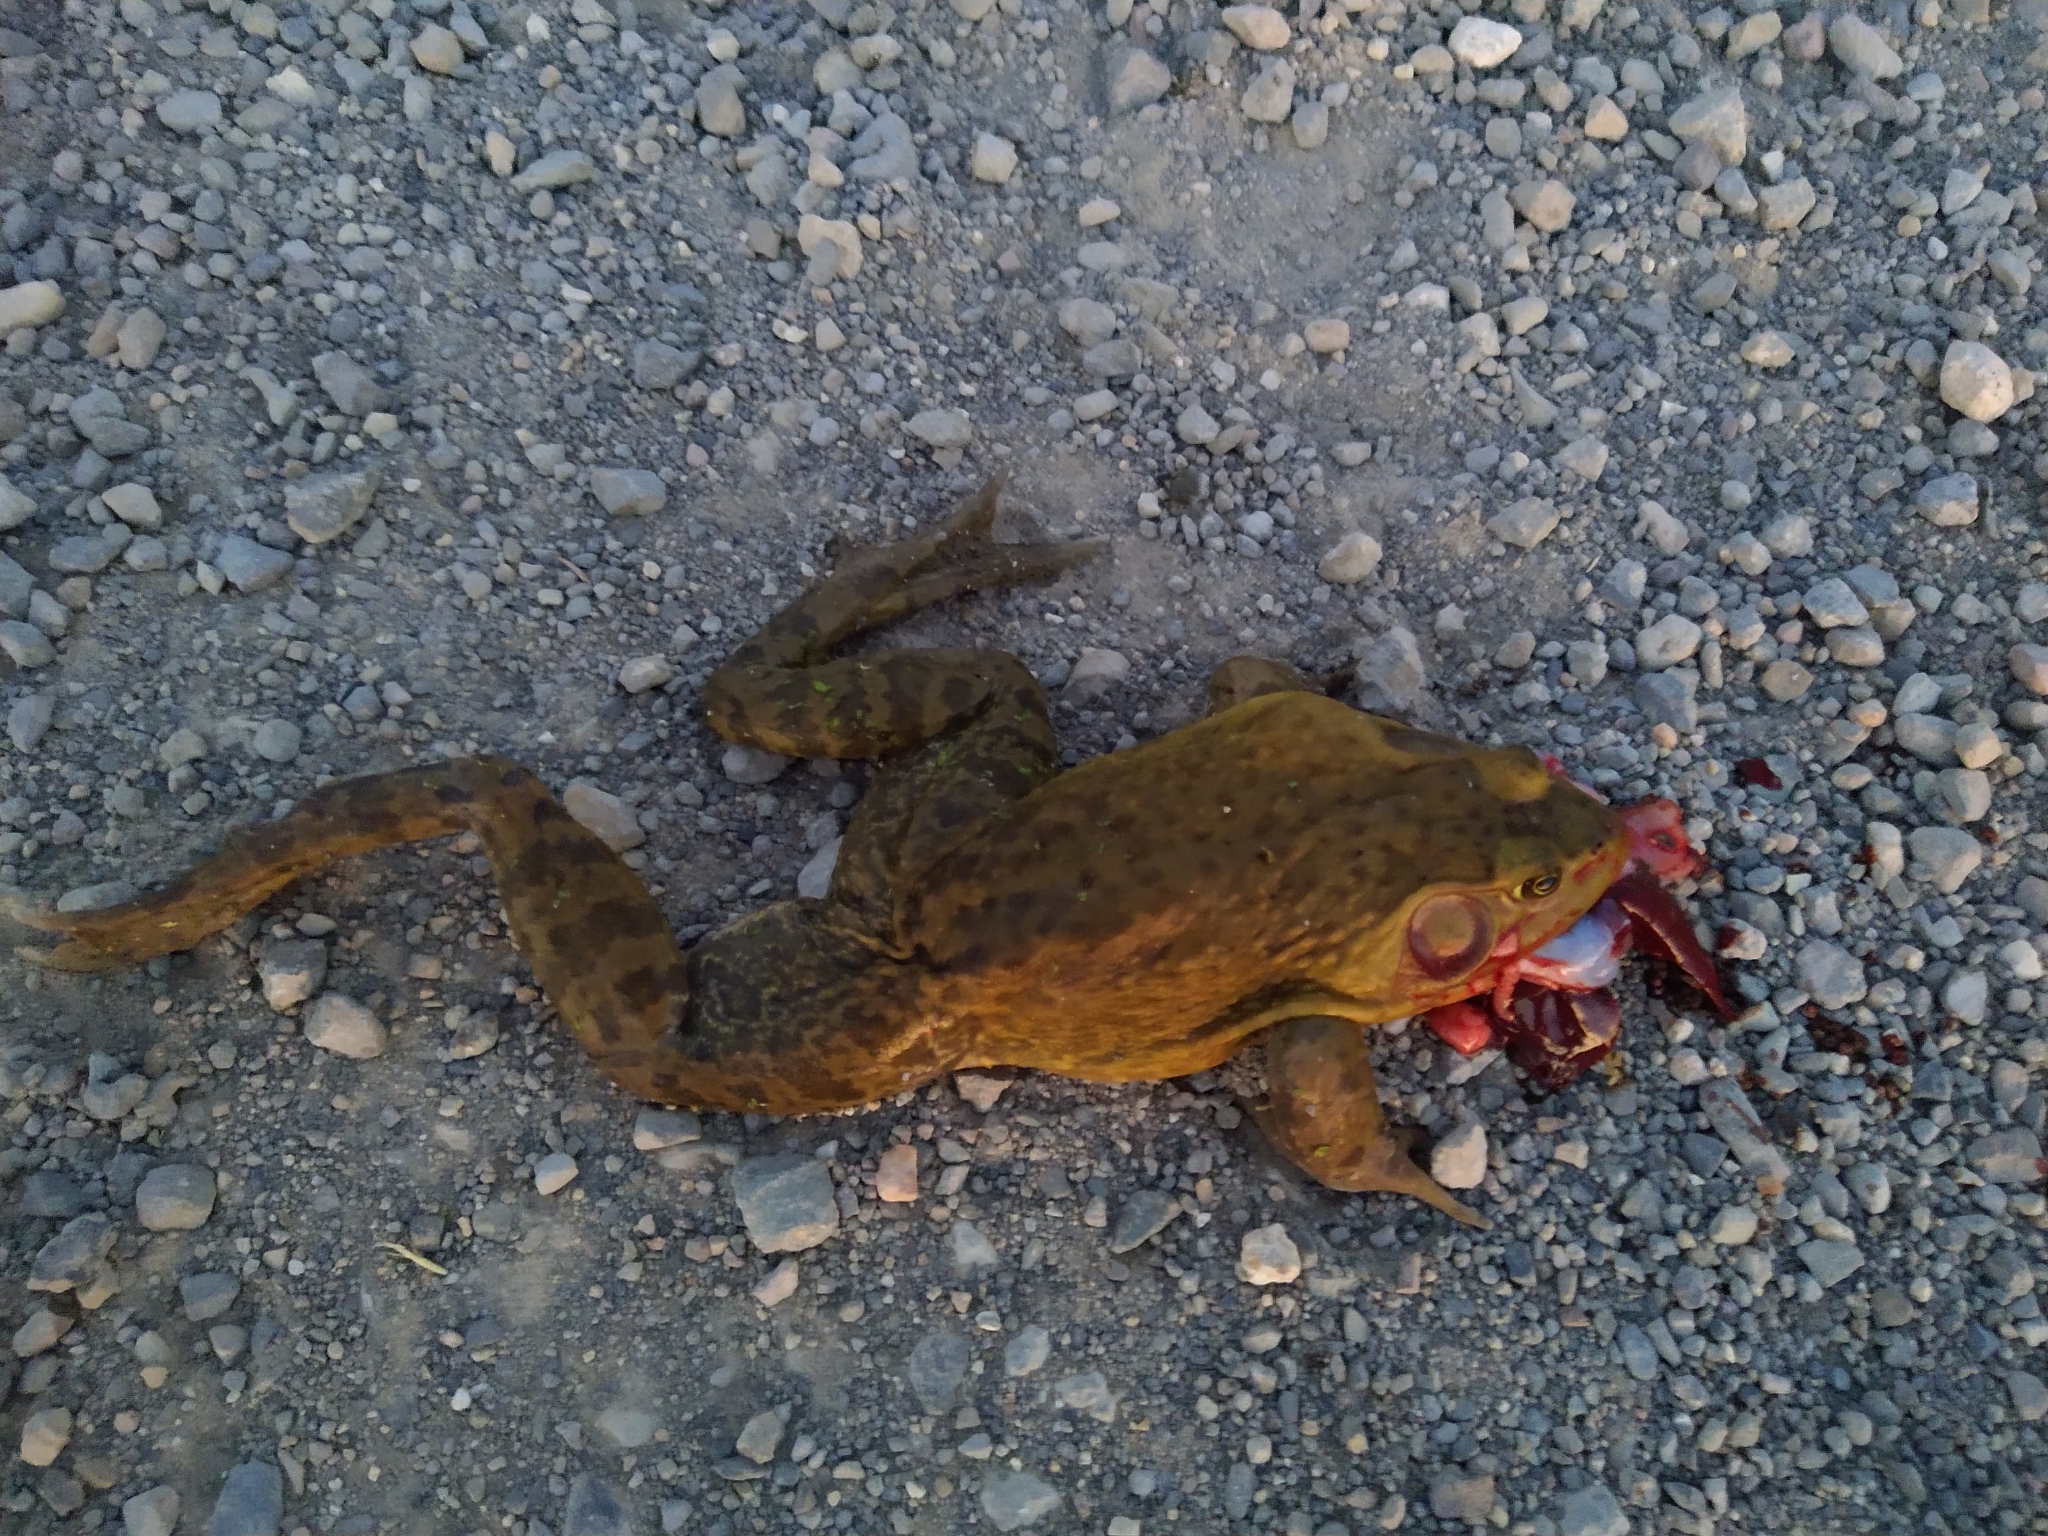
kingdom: Animalia
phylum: Chordata
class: Amphibia
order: Anura
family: Ranidae
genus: Lithobates
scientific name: Lithobates catesbeianus
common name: American bullfrog
